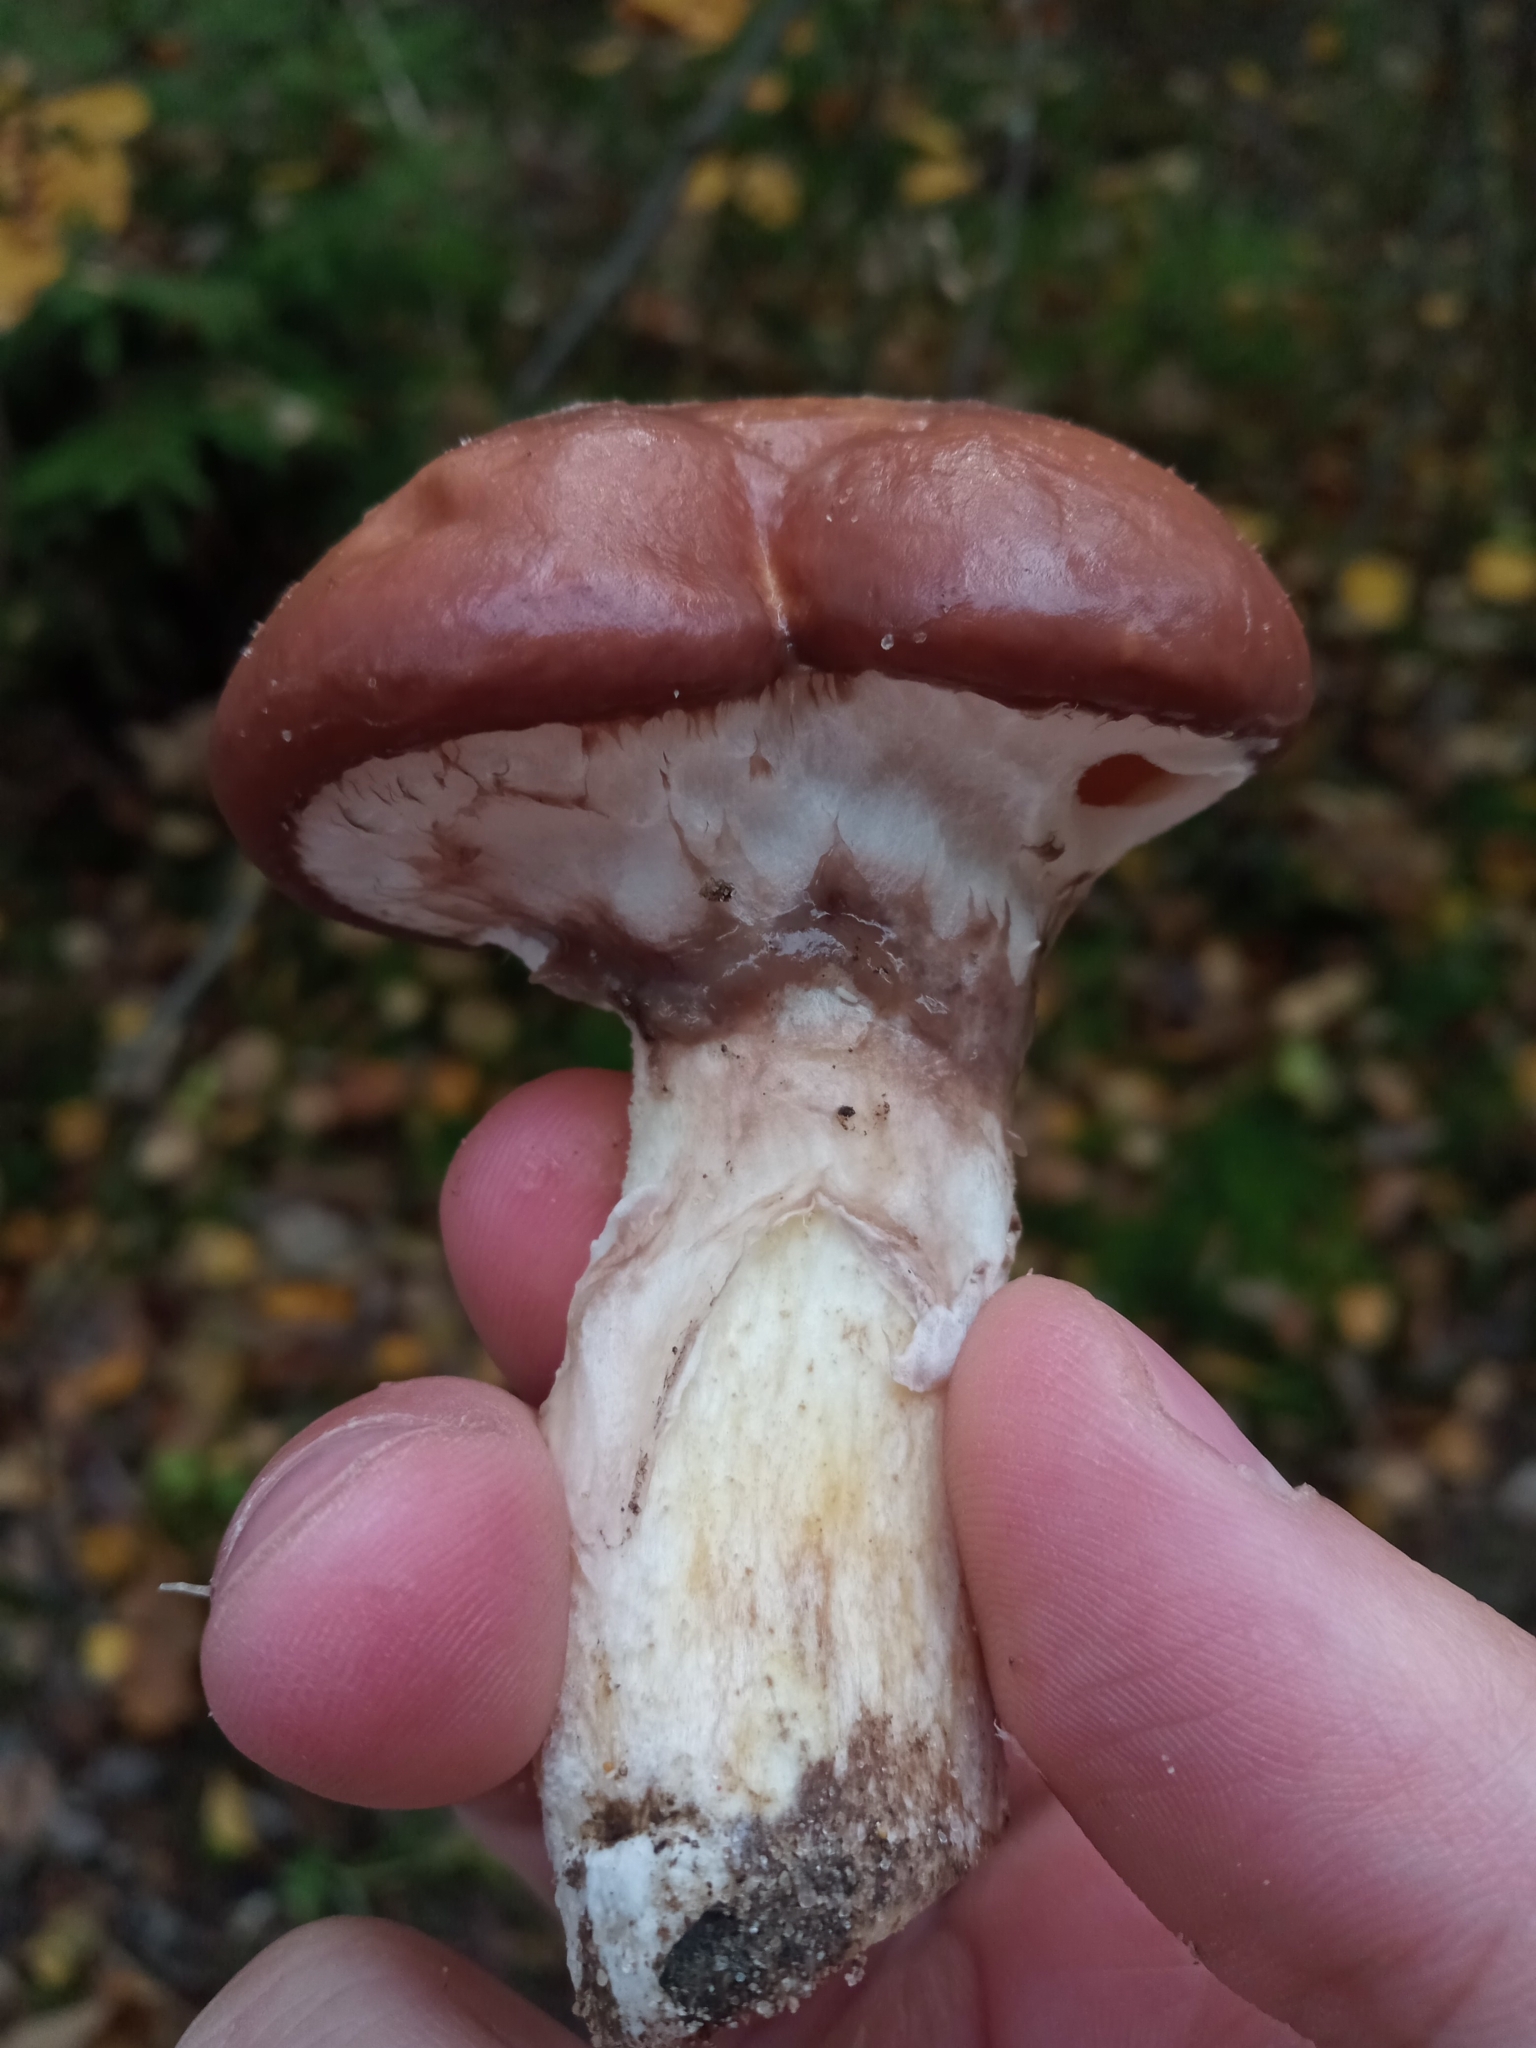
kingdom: Fungi
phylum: Basidiomycota
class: Agaricomycetes
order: Boletales
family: Suillaceae
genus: Suillus
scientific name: Suillus luteus
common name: Slippery jack
